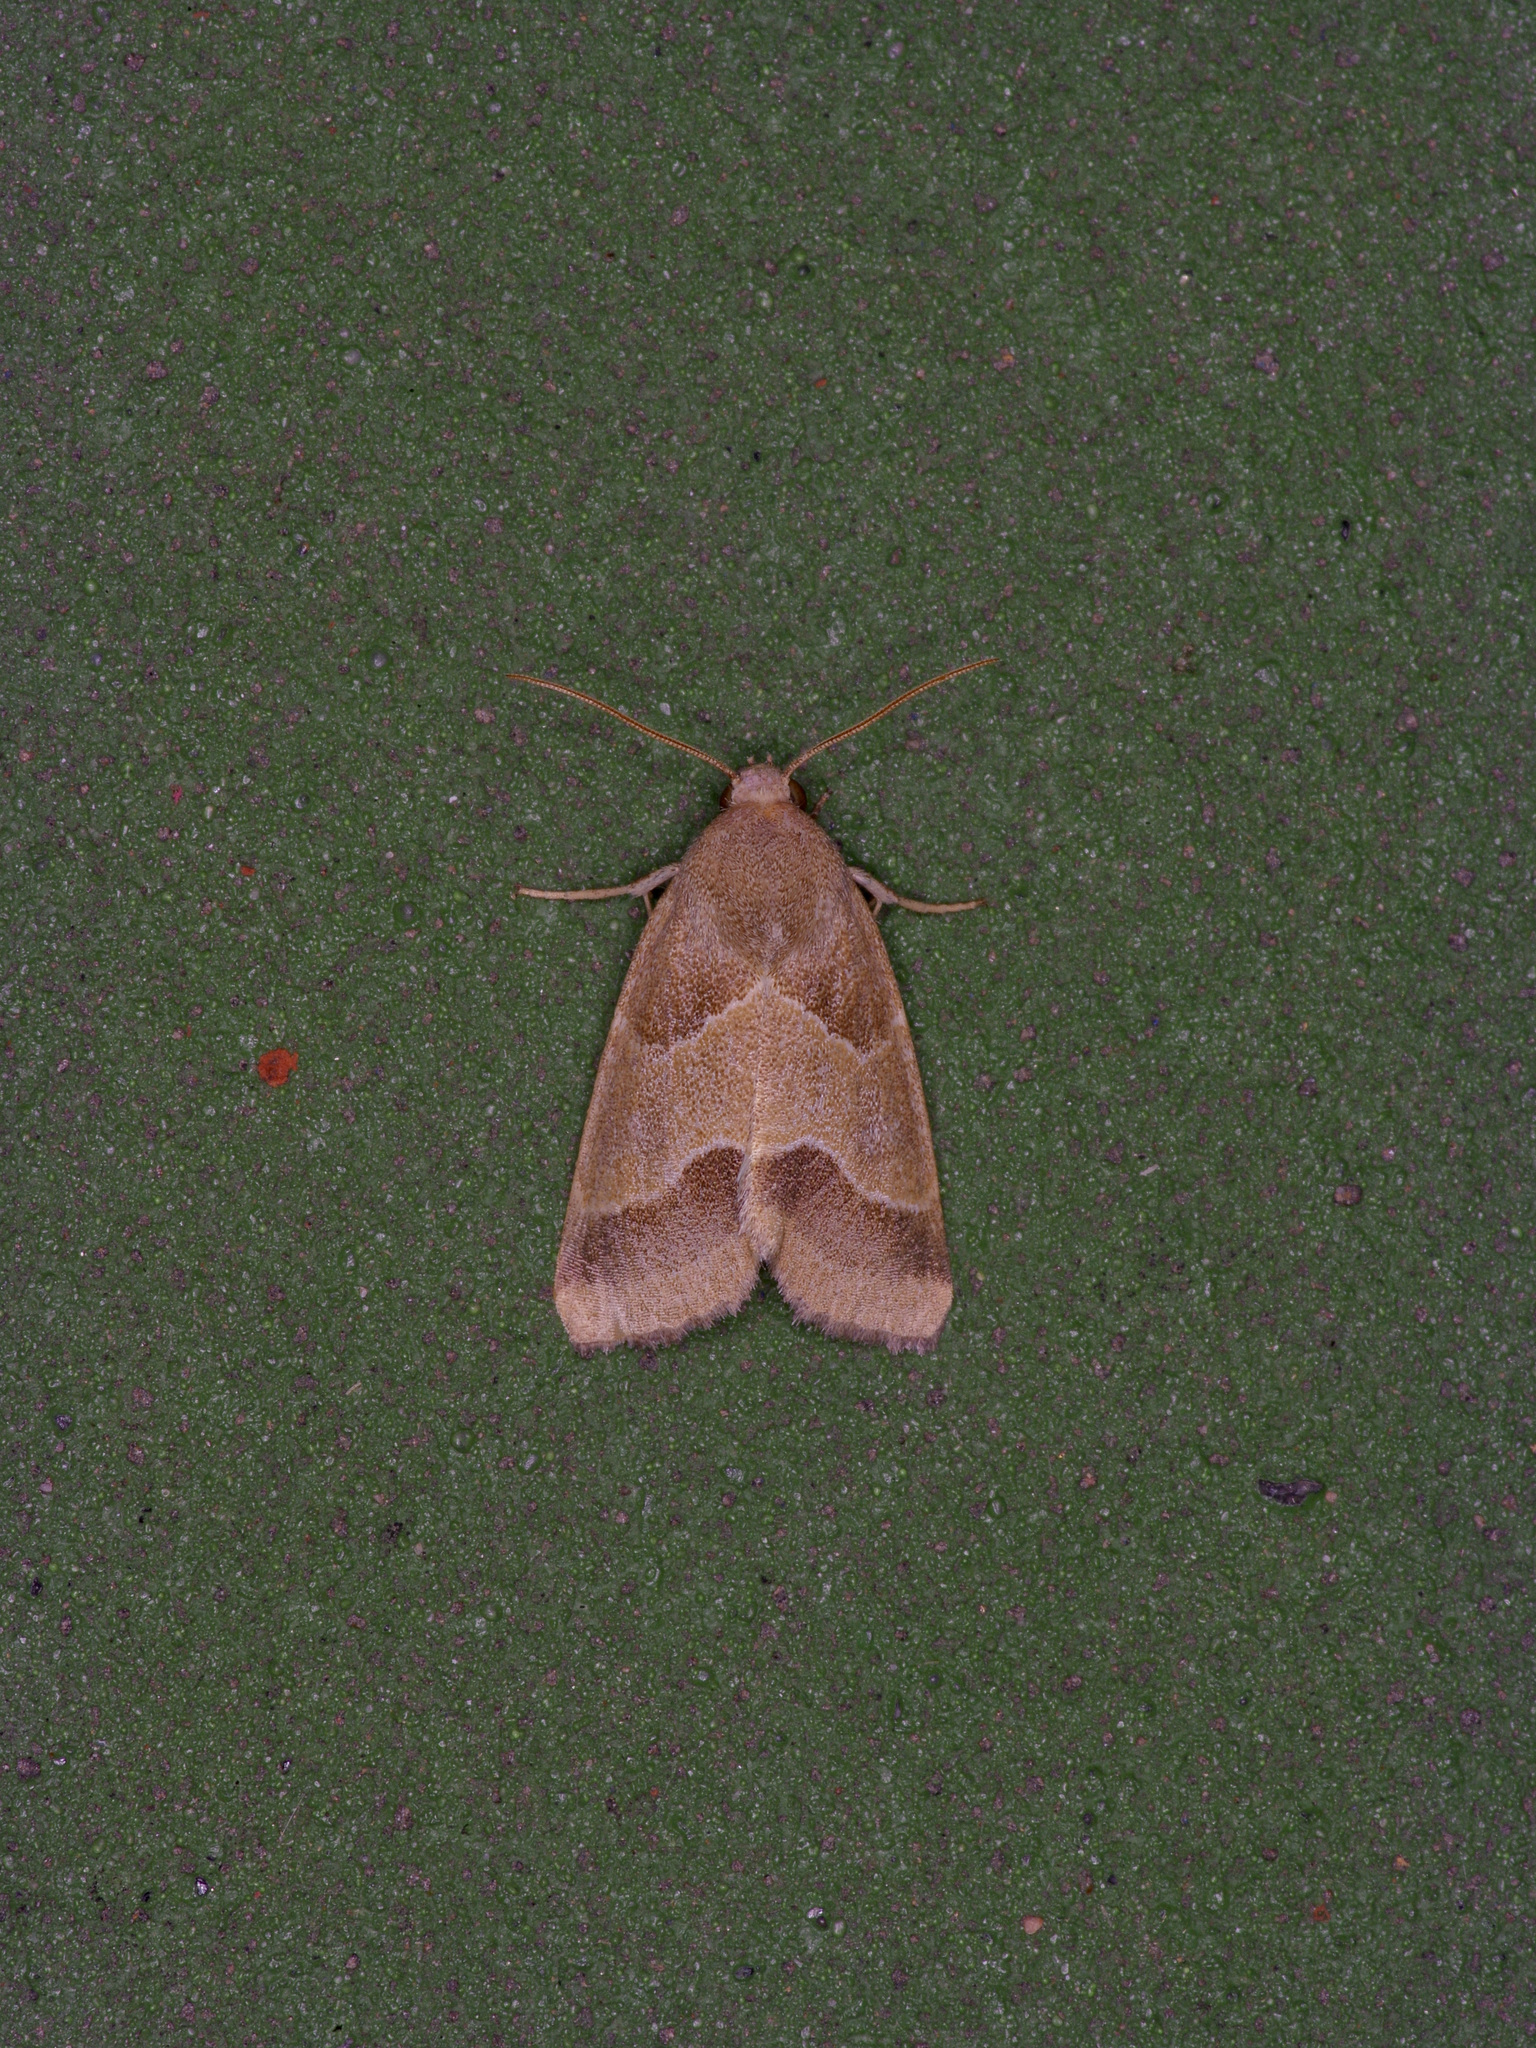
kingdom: Animalia
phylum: Arthropoda
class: Insecta
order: Lepidoptera
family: Noctuidae
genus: Schinia
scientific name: Schinia gracilenta
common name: Slender flower moth
